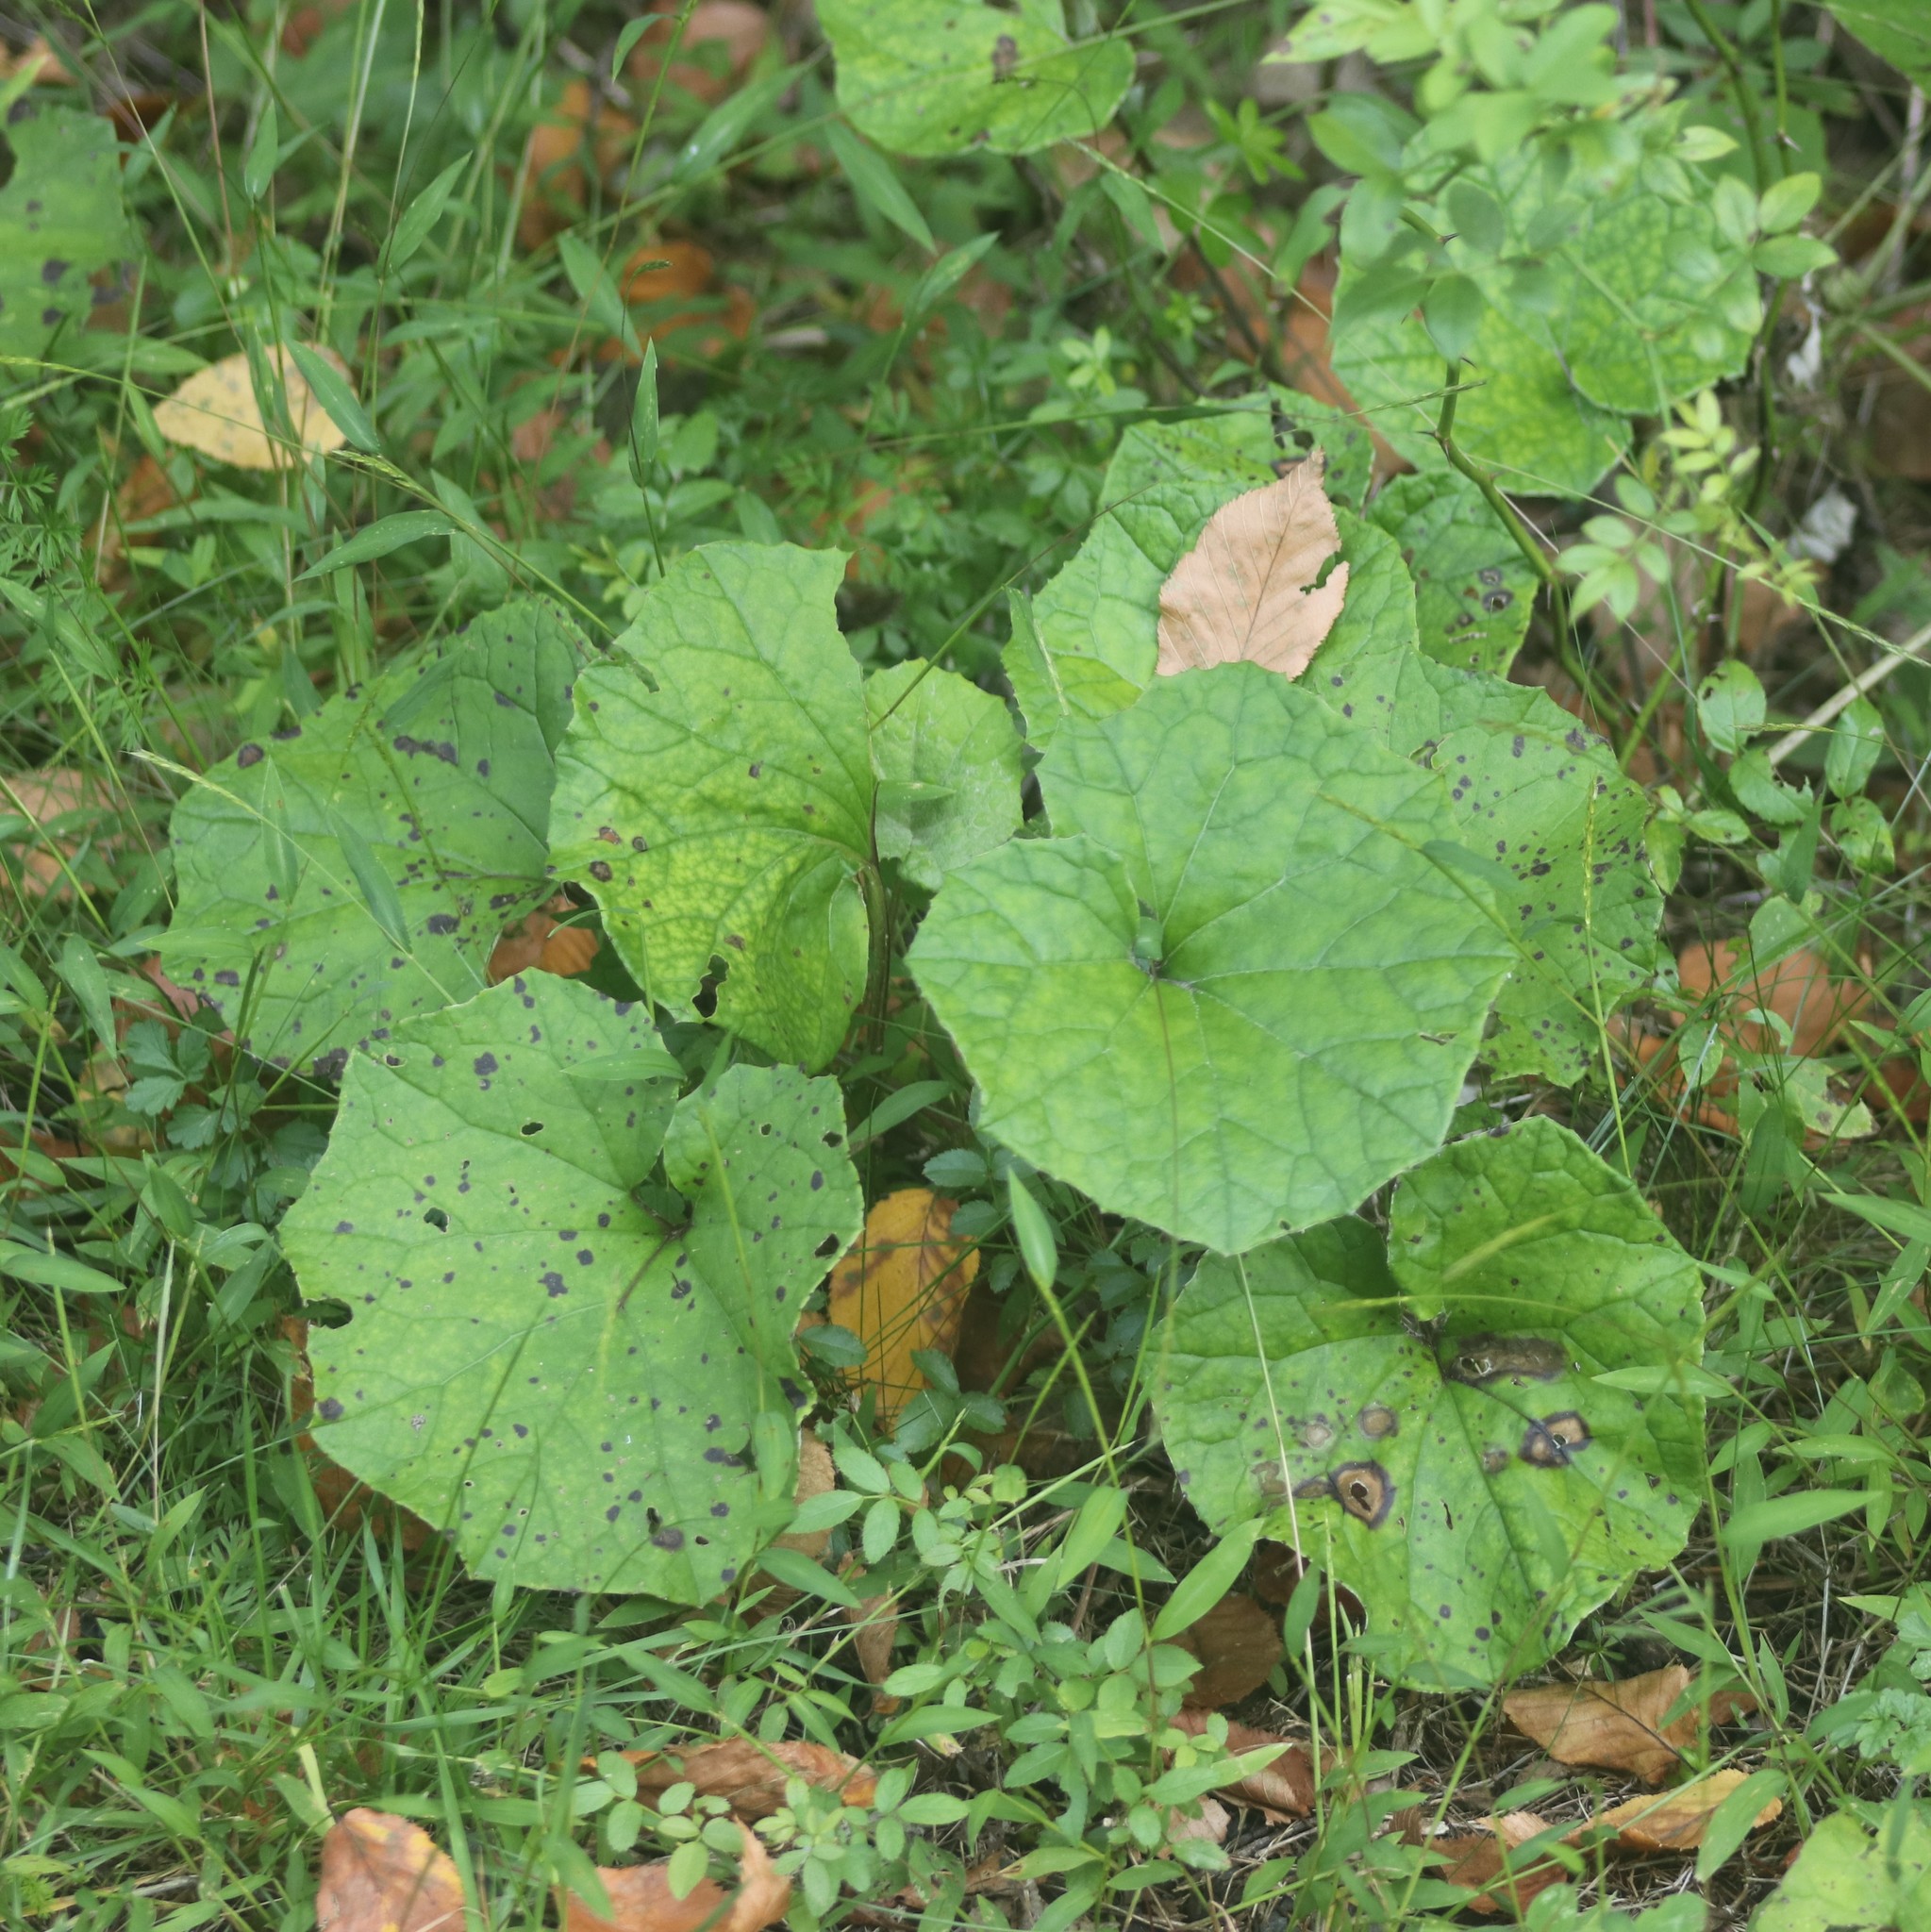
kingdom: Plantae
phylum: Tracheophyta
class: Magnoliopsida
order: Asterales
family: Asteraceae
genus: Tussilago
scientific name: Tussilago farfara
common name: Coltsfoot
